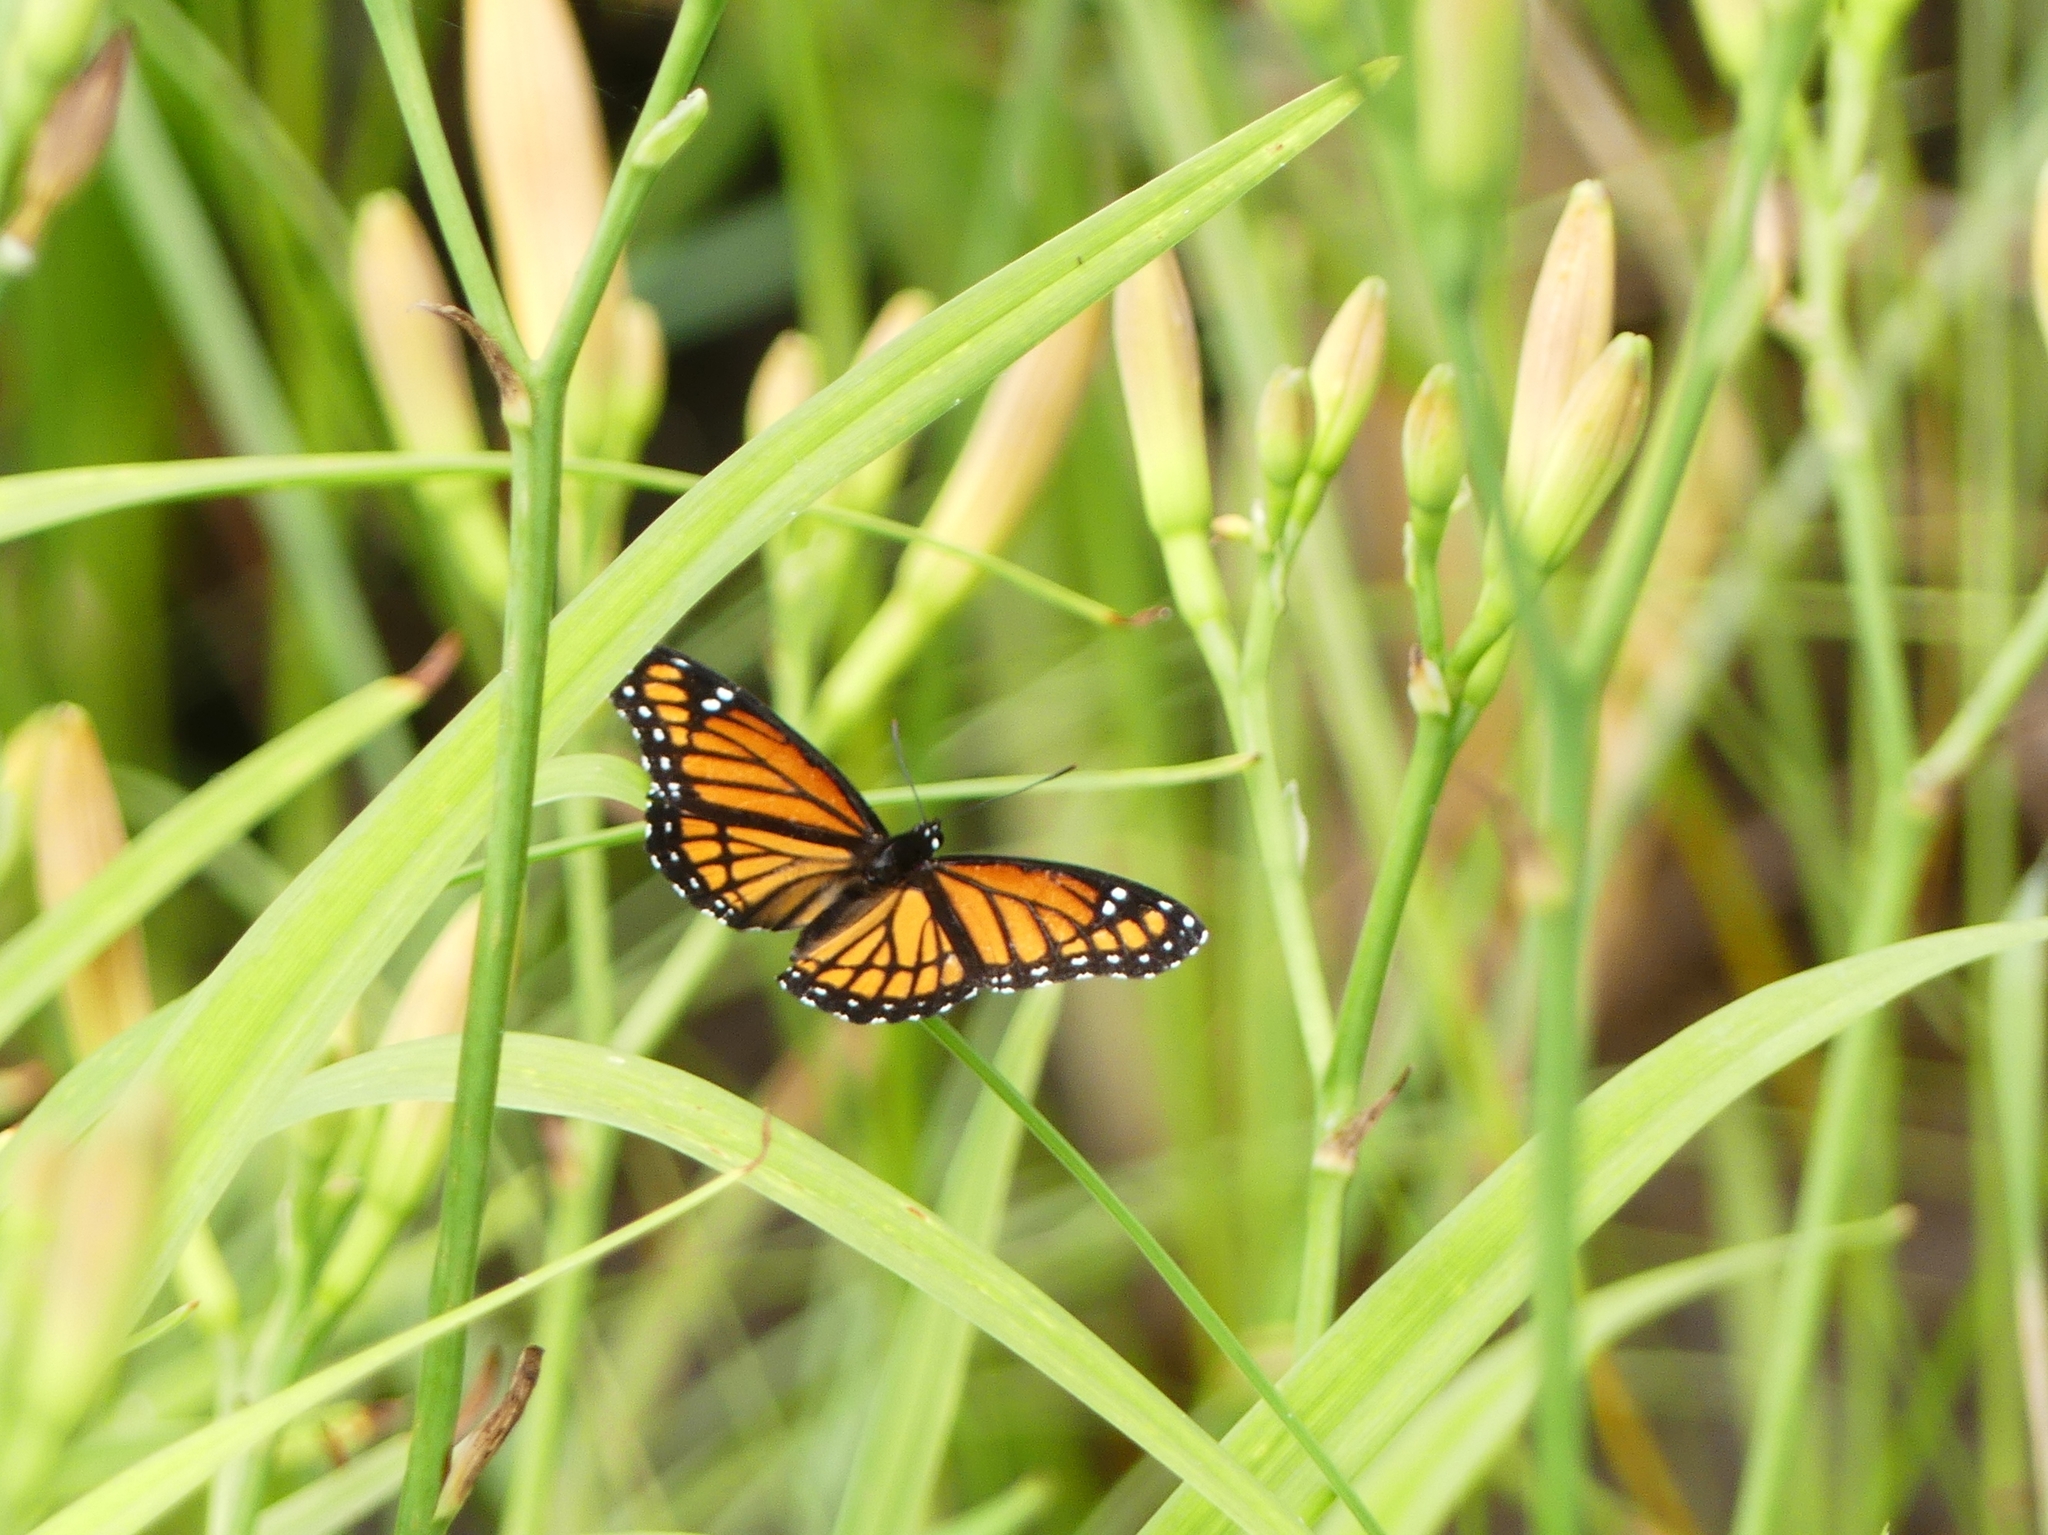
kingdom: Animalia
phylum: Arthropoda
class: Insecta
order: Lepidoptera
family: Nymphalidae
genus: Limenitis
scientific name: Limenitis archippus
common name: Viceroy
